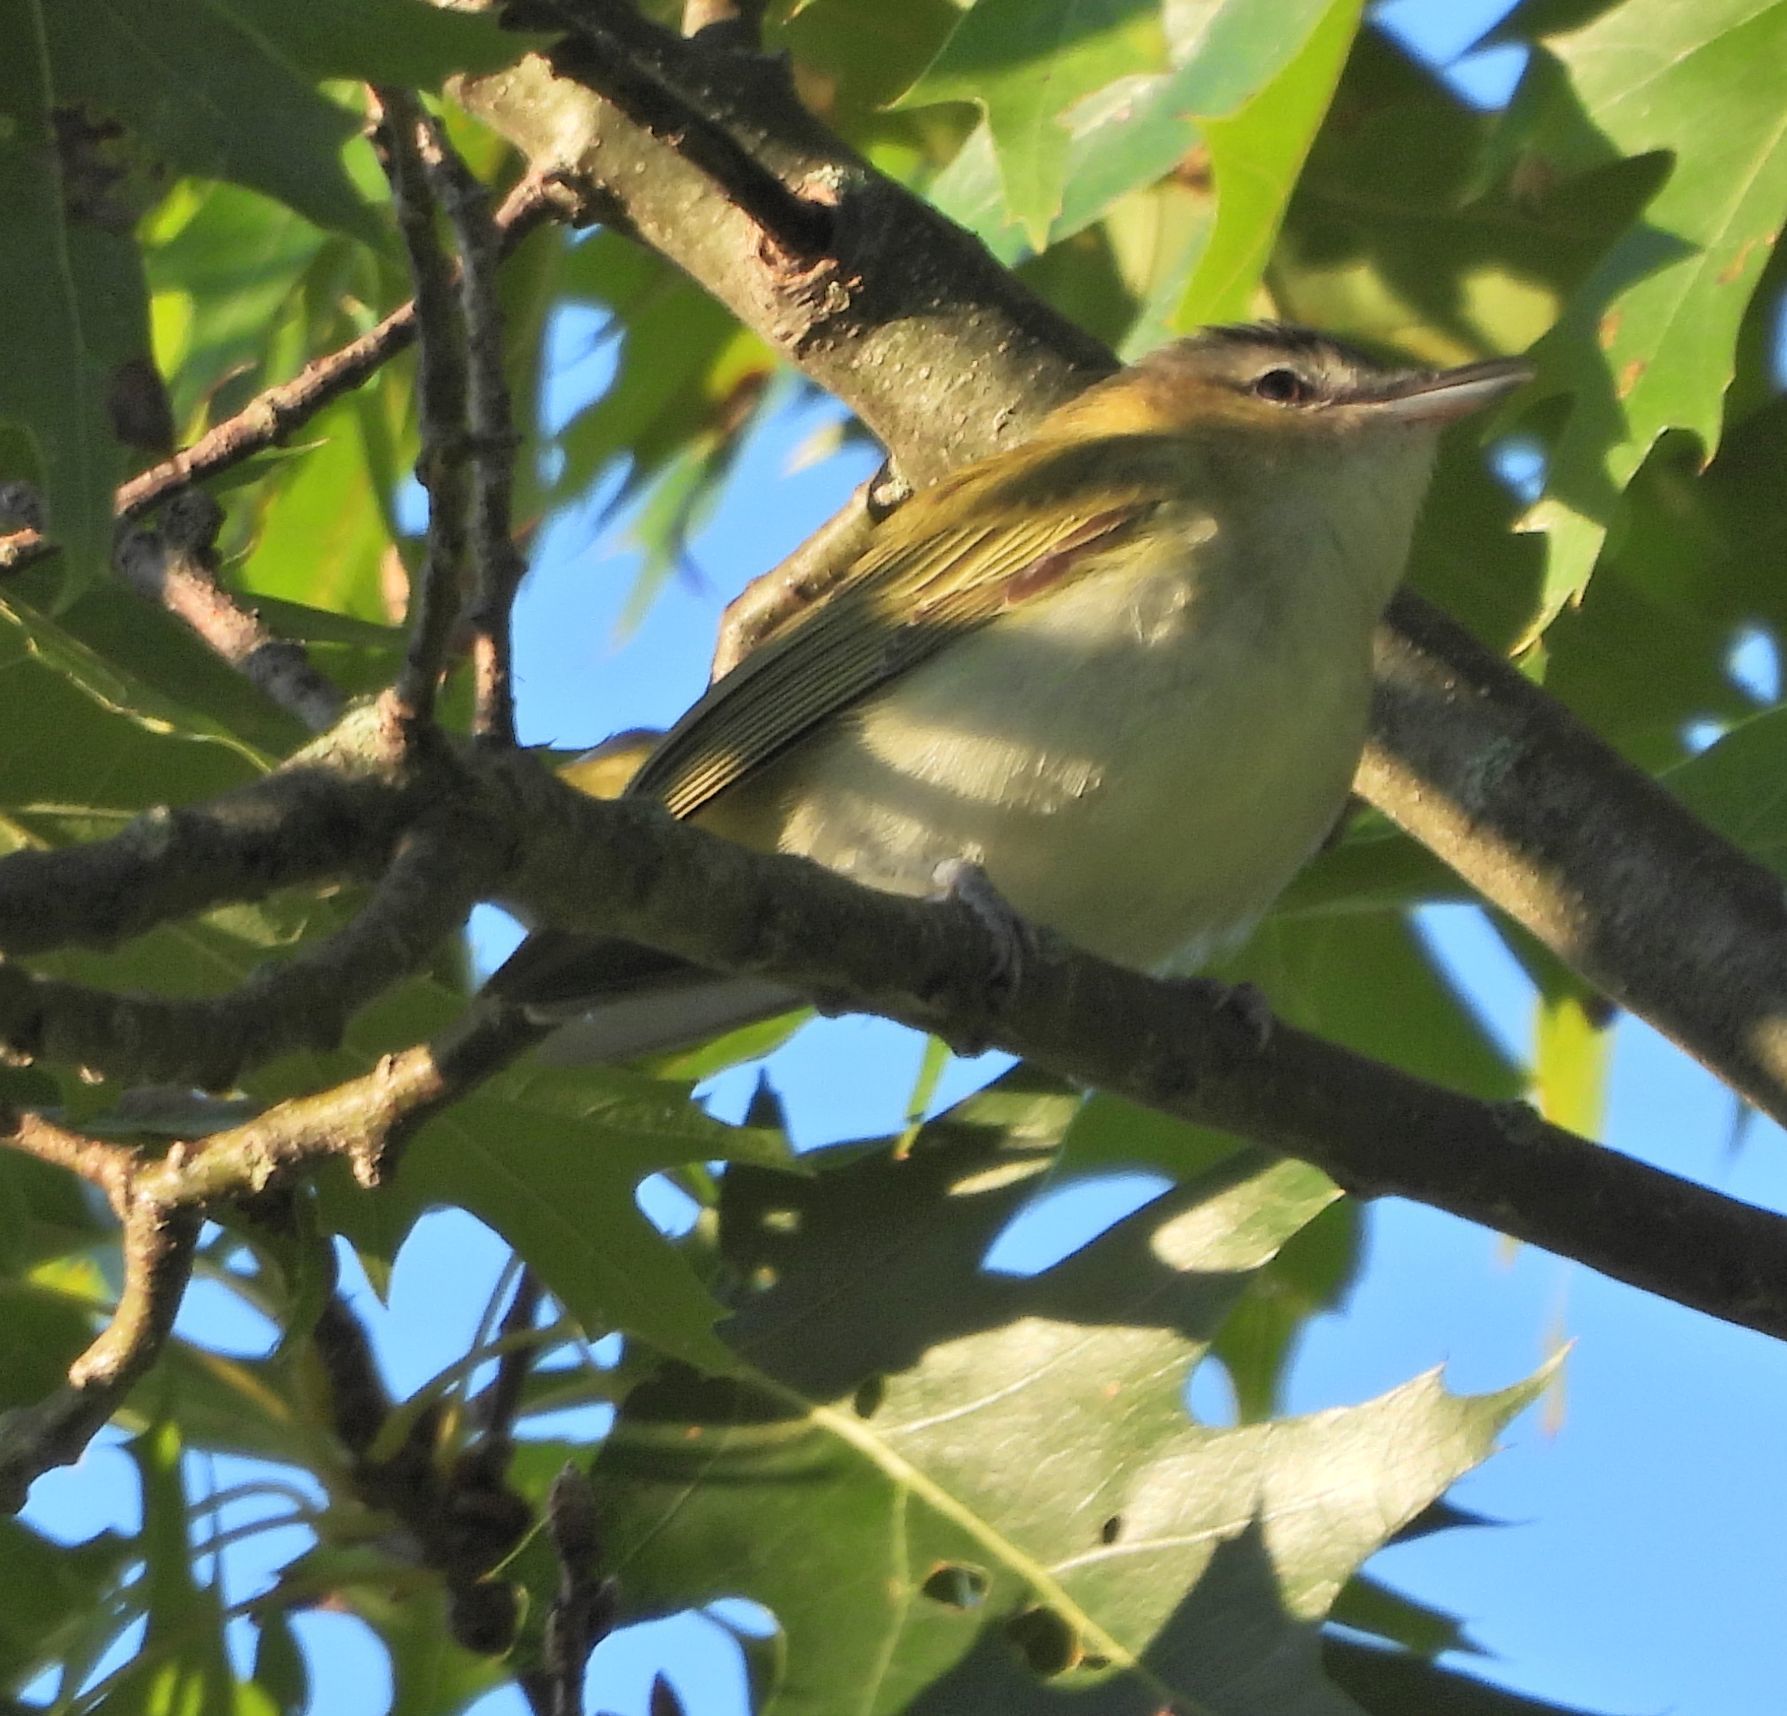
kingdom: Animalia
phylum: Chordata
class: Aves
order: Passeriformes
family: Vireonidae
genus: Vireo
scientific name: Vireo olivaceus
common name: Red-eyed vireo
